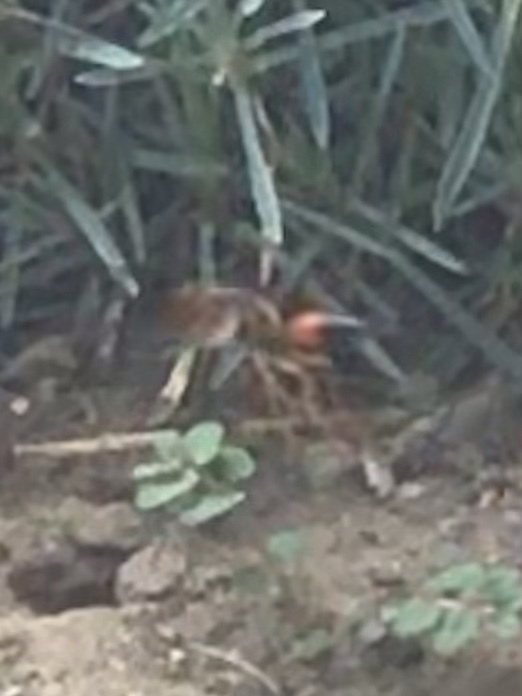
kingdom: Animalia
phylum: Arthropoda
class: Insecta
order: Hymenoptera
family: Sphecidae
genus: Sphex
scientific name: Sphex ichneumoneus
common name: Great golden digger wasp
